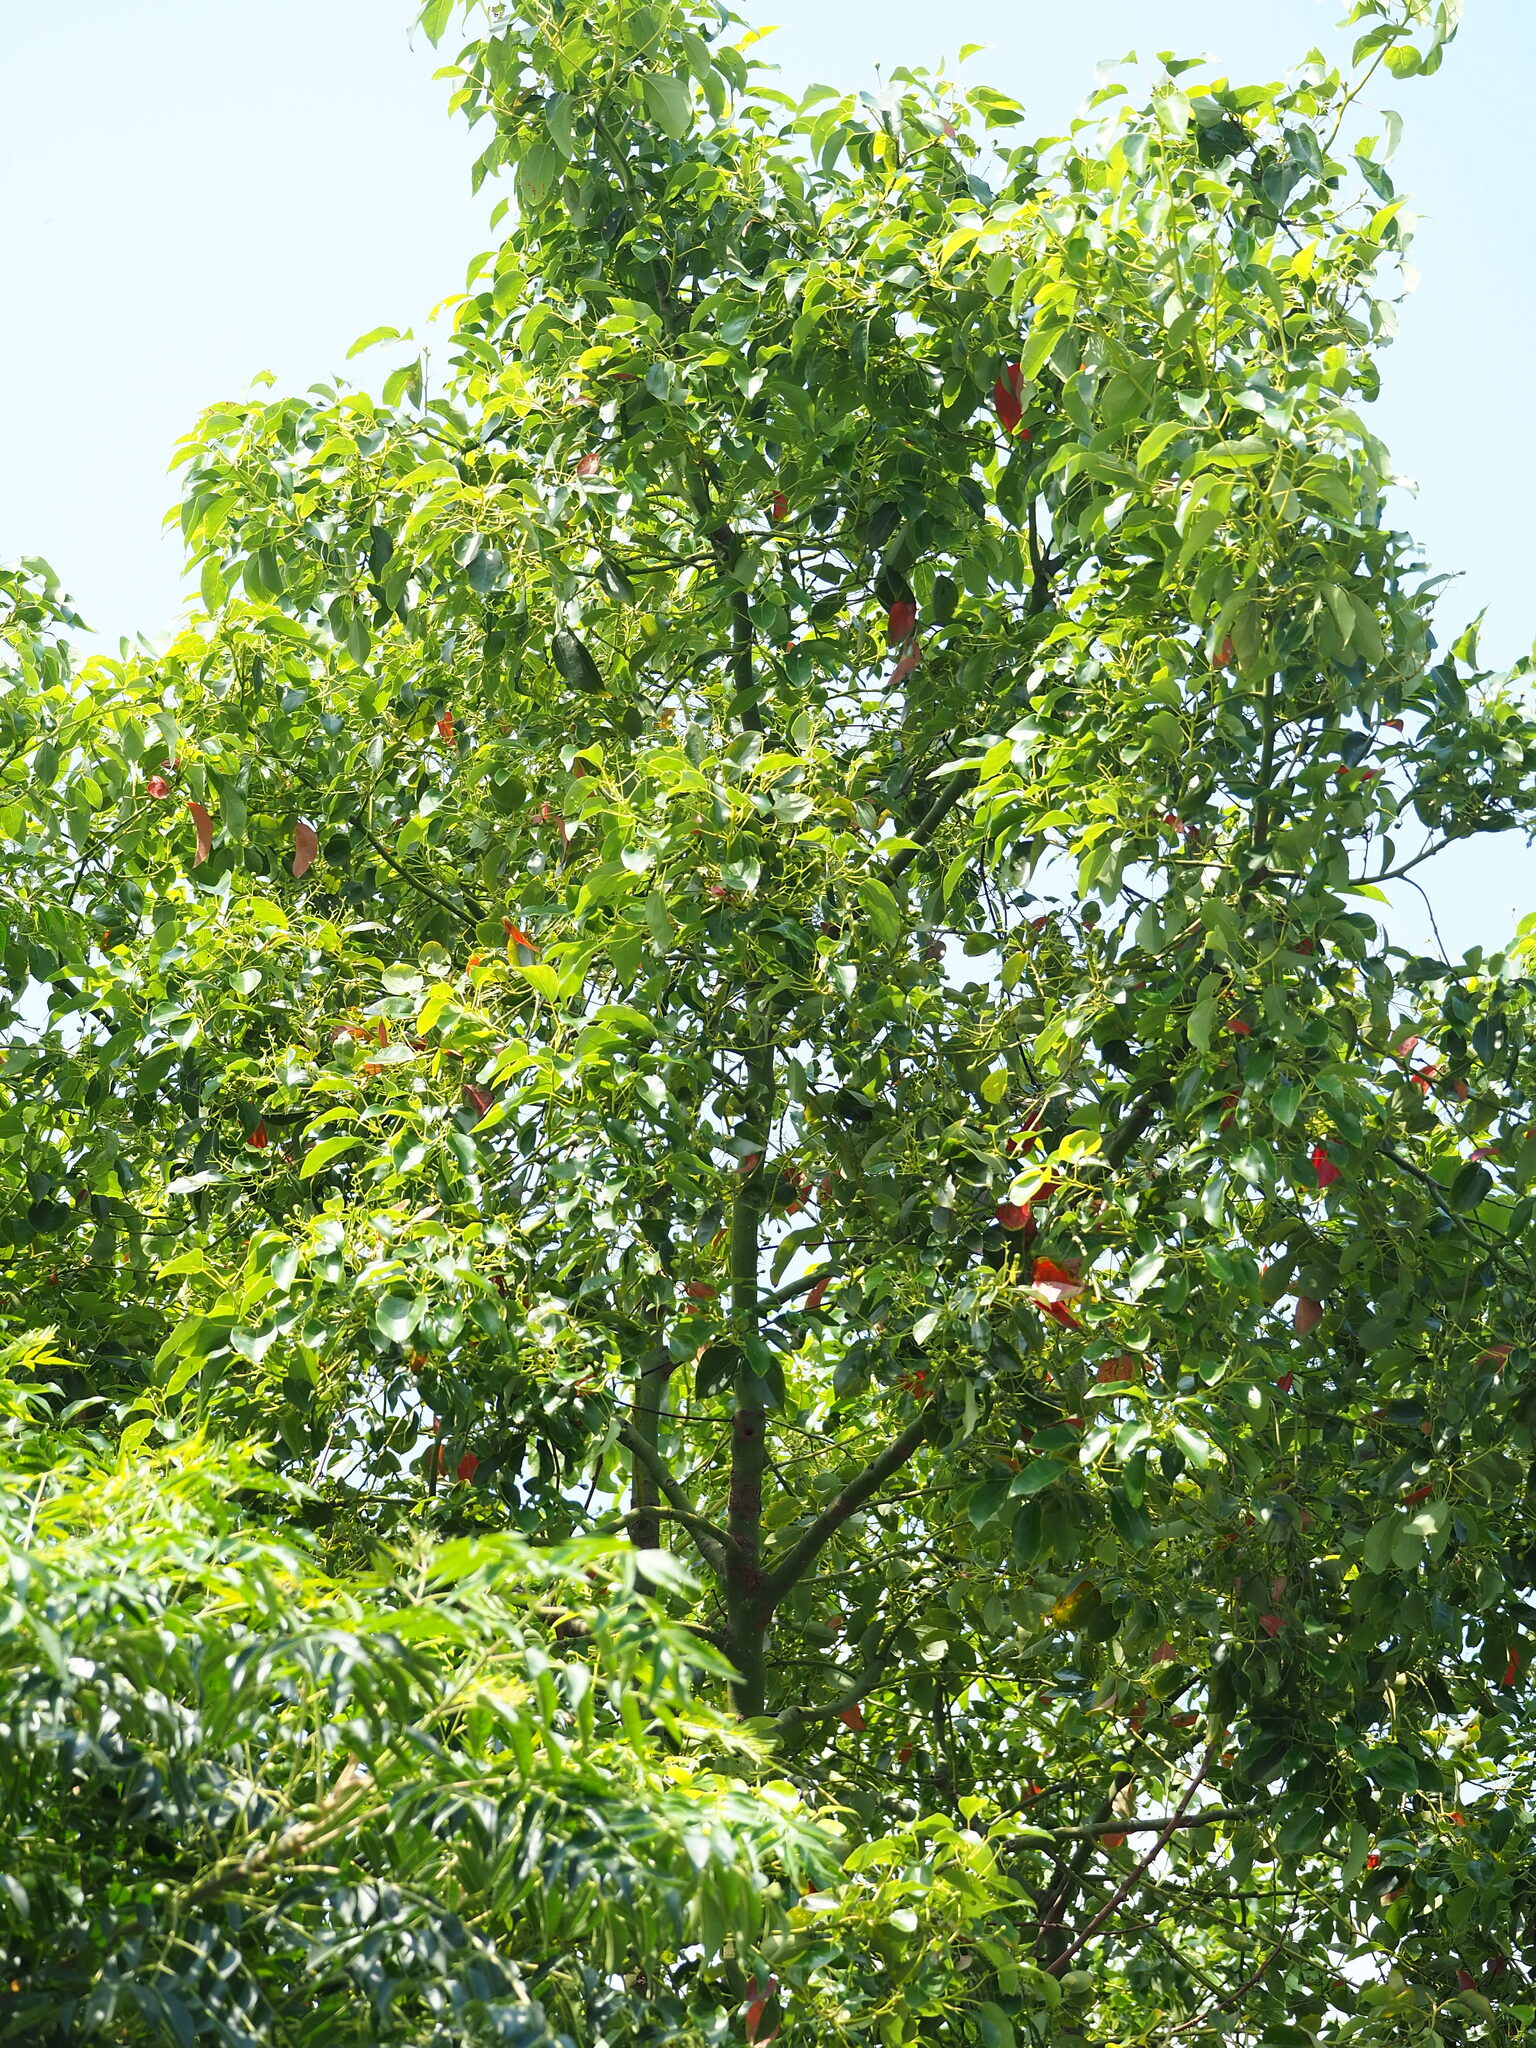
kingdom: Plantae
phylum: Tracheophyta
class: Magnoliopsida
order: Laurales
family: Lauraceae
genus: Cinnamomum
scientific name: Cinnamomum camphora
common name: Camphortree
